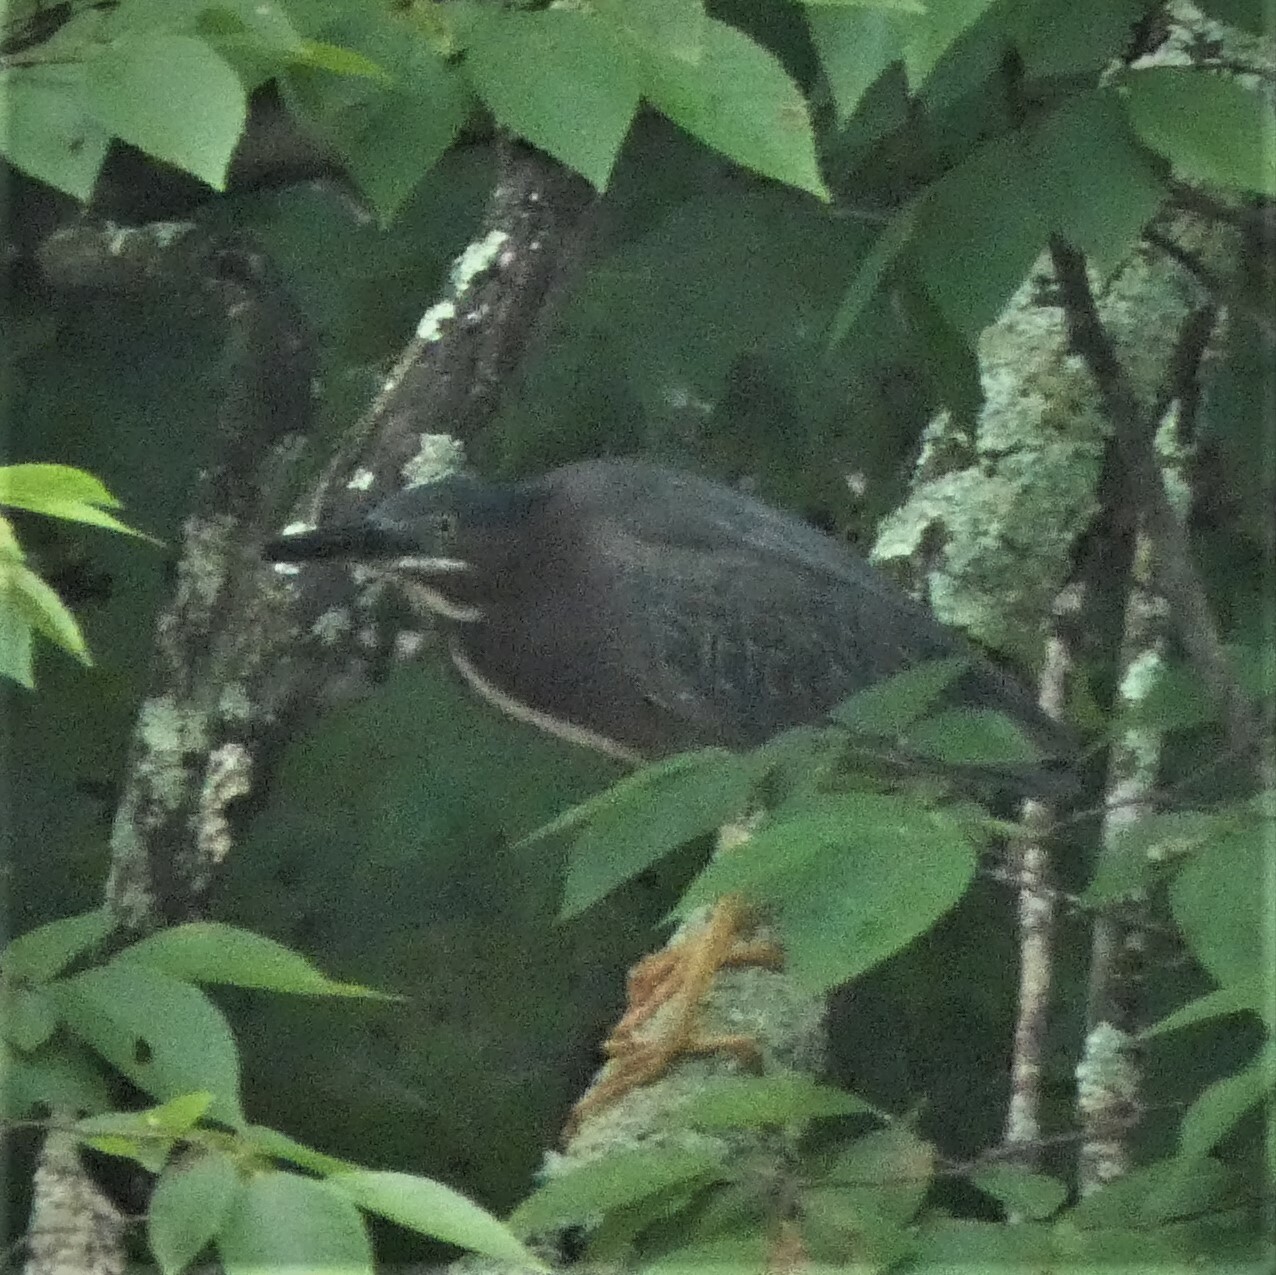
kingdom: Animalia
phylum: Chordata
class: Aves
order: Pelecaniformes
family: Ardeidae
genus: Butorides
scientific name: Butorides virescens
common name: Green heron
